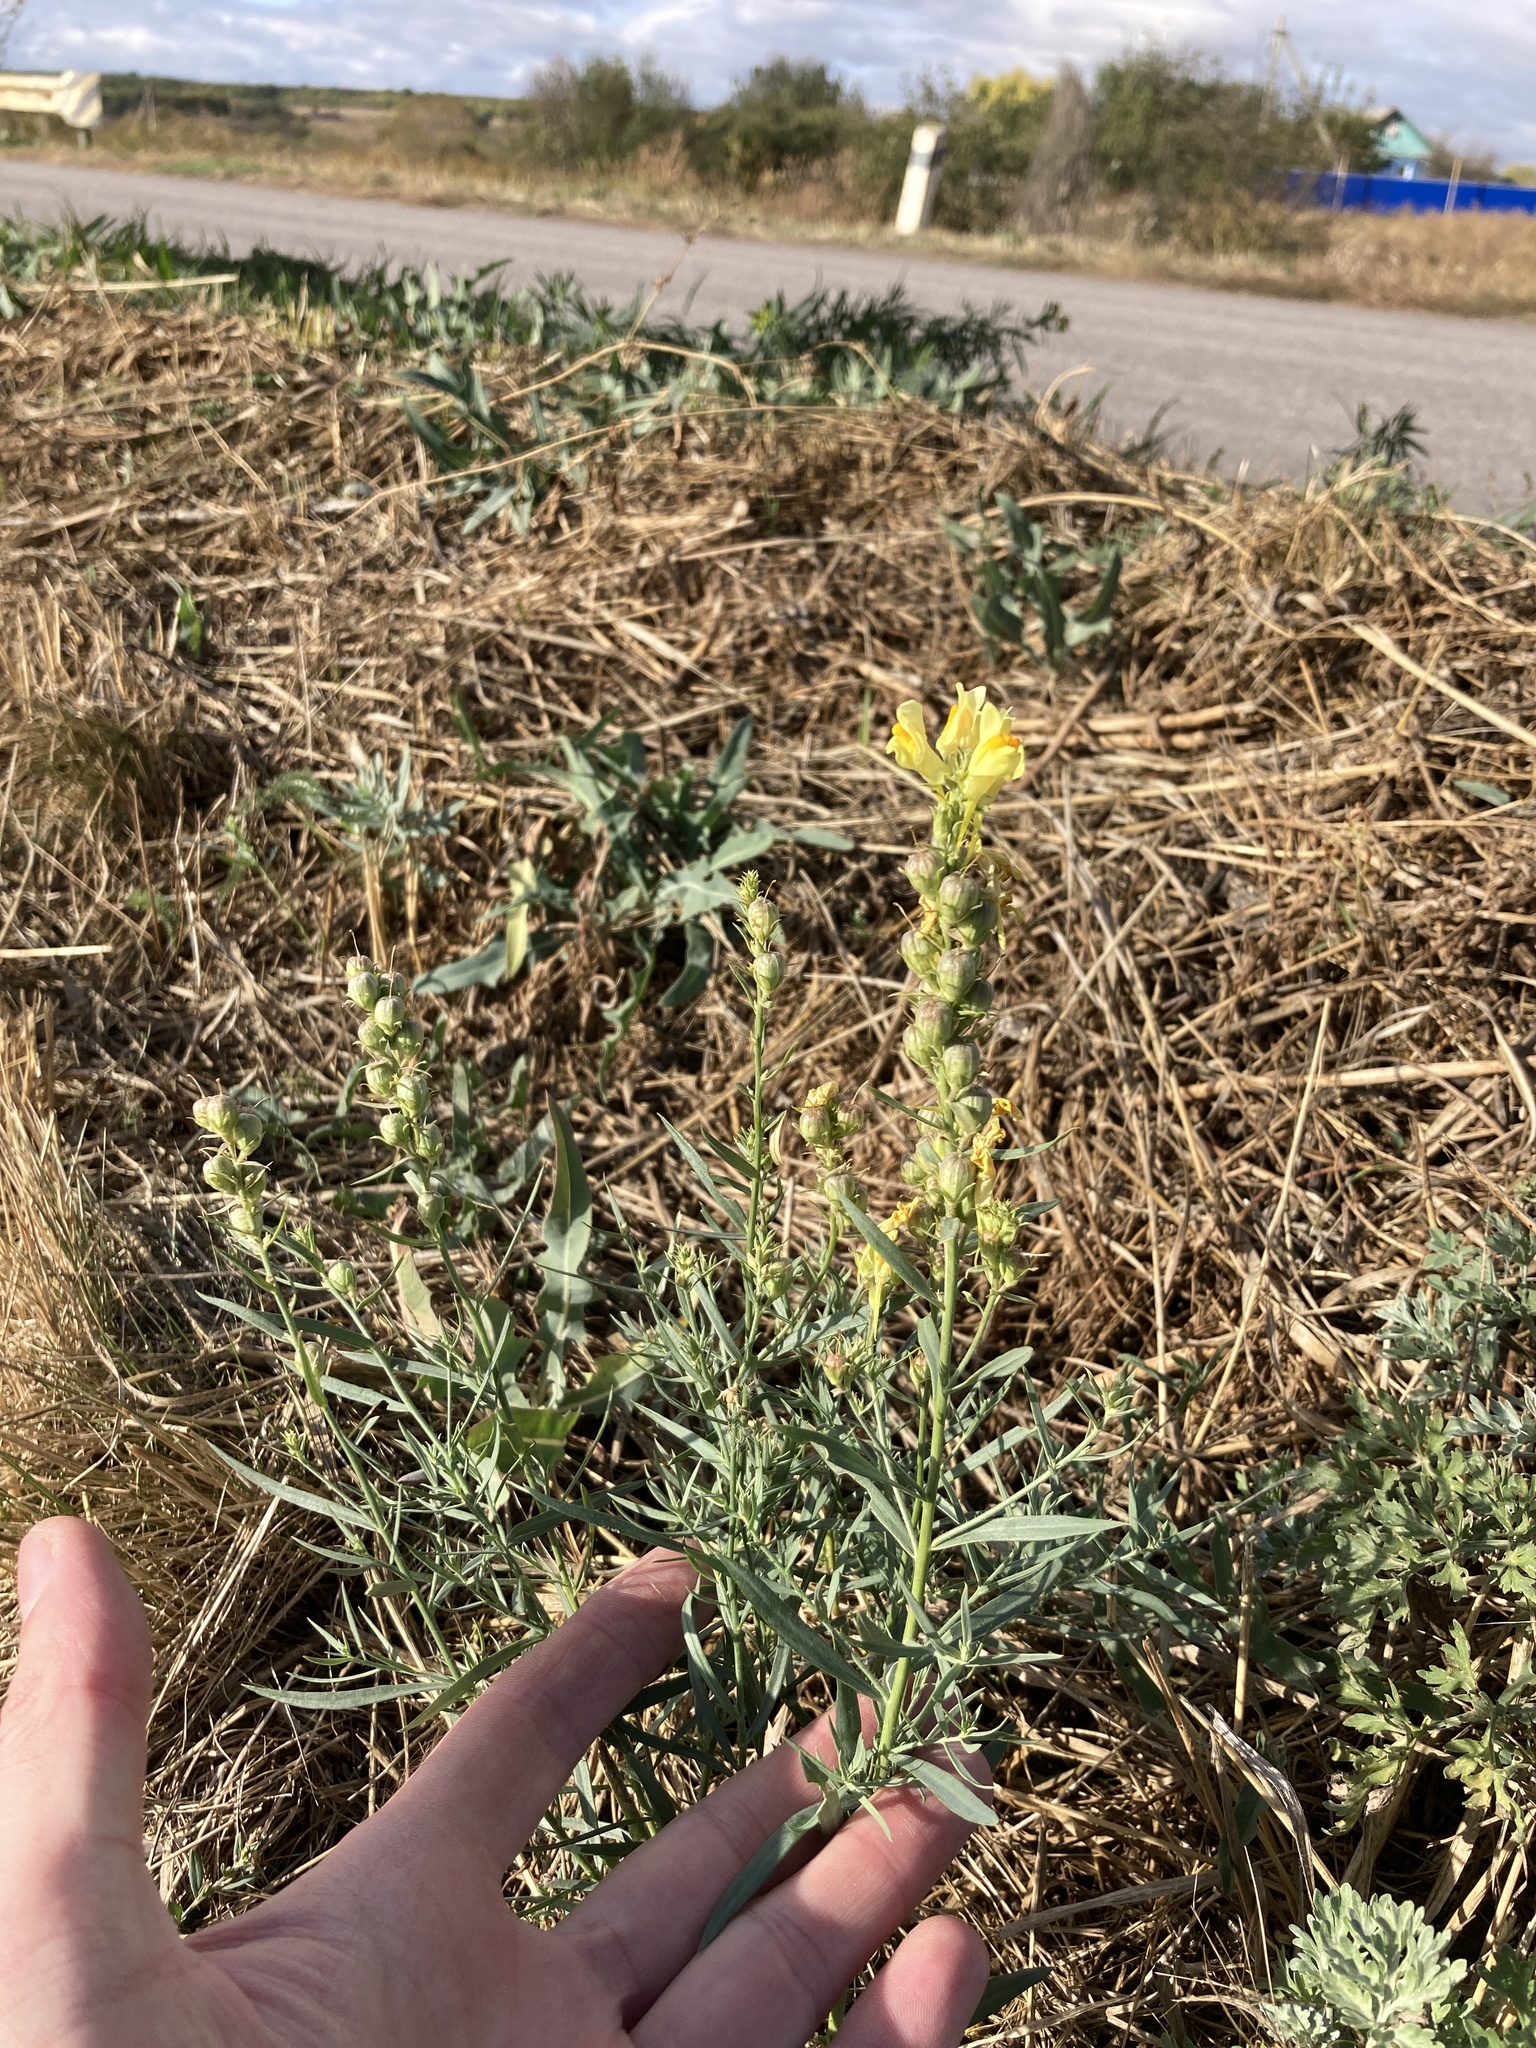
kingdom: Plantae
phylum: Tracheophyta
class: Magnoliopsida
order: Lamiales
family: Plantaginaceae
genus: Linaria
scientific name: Linaria vulgaris
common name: Butter and eggs
